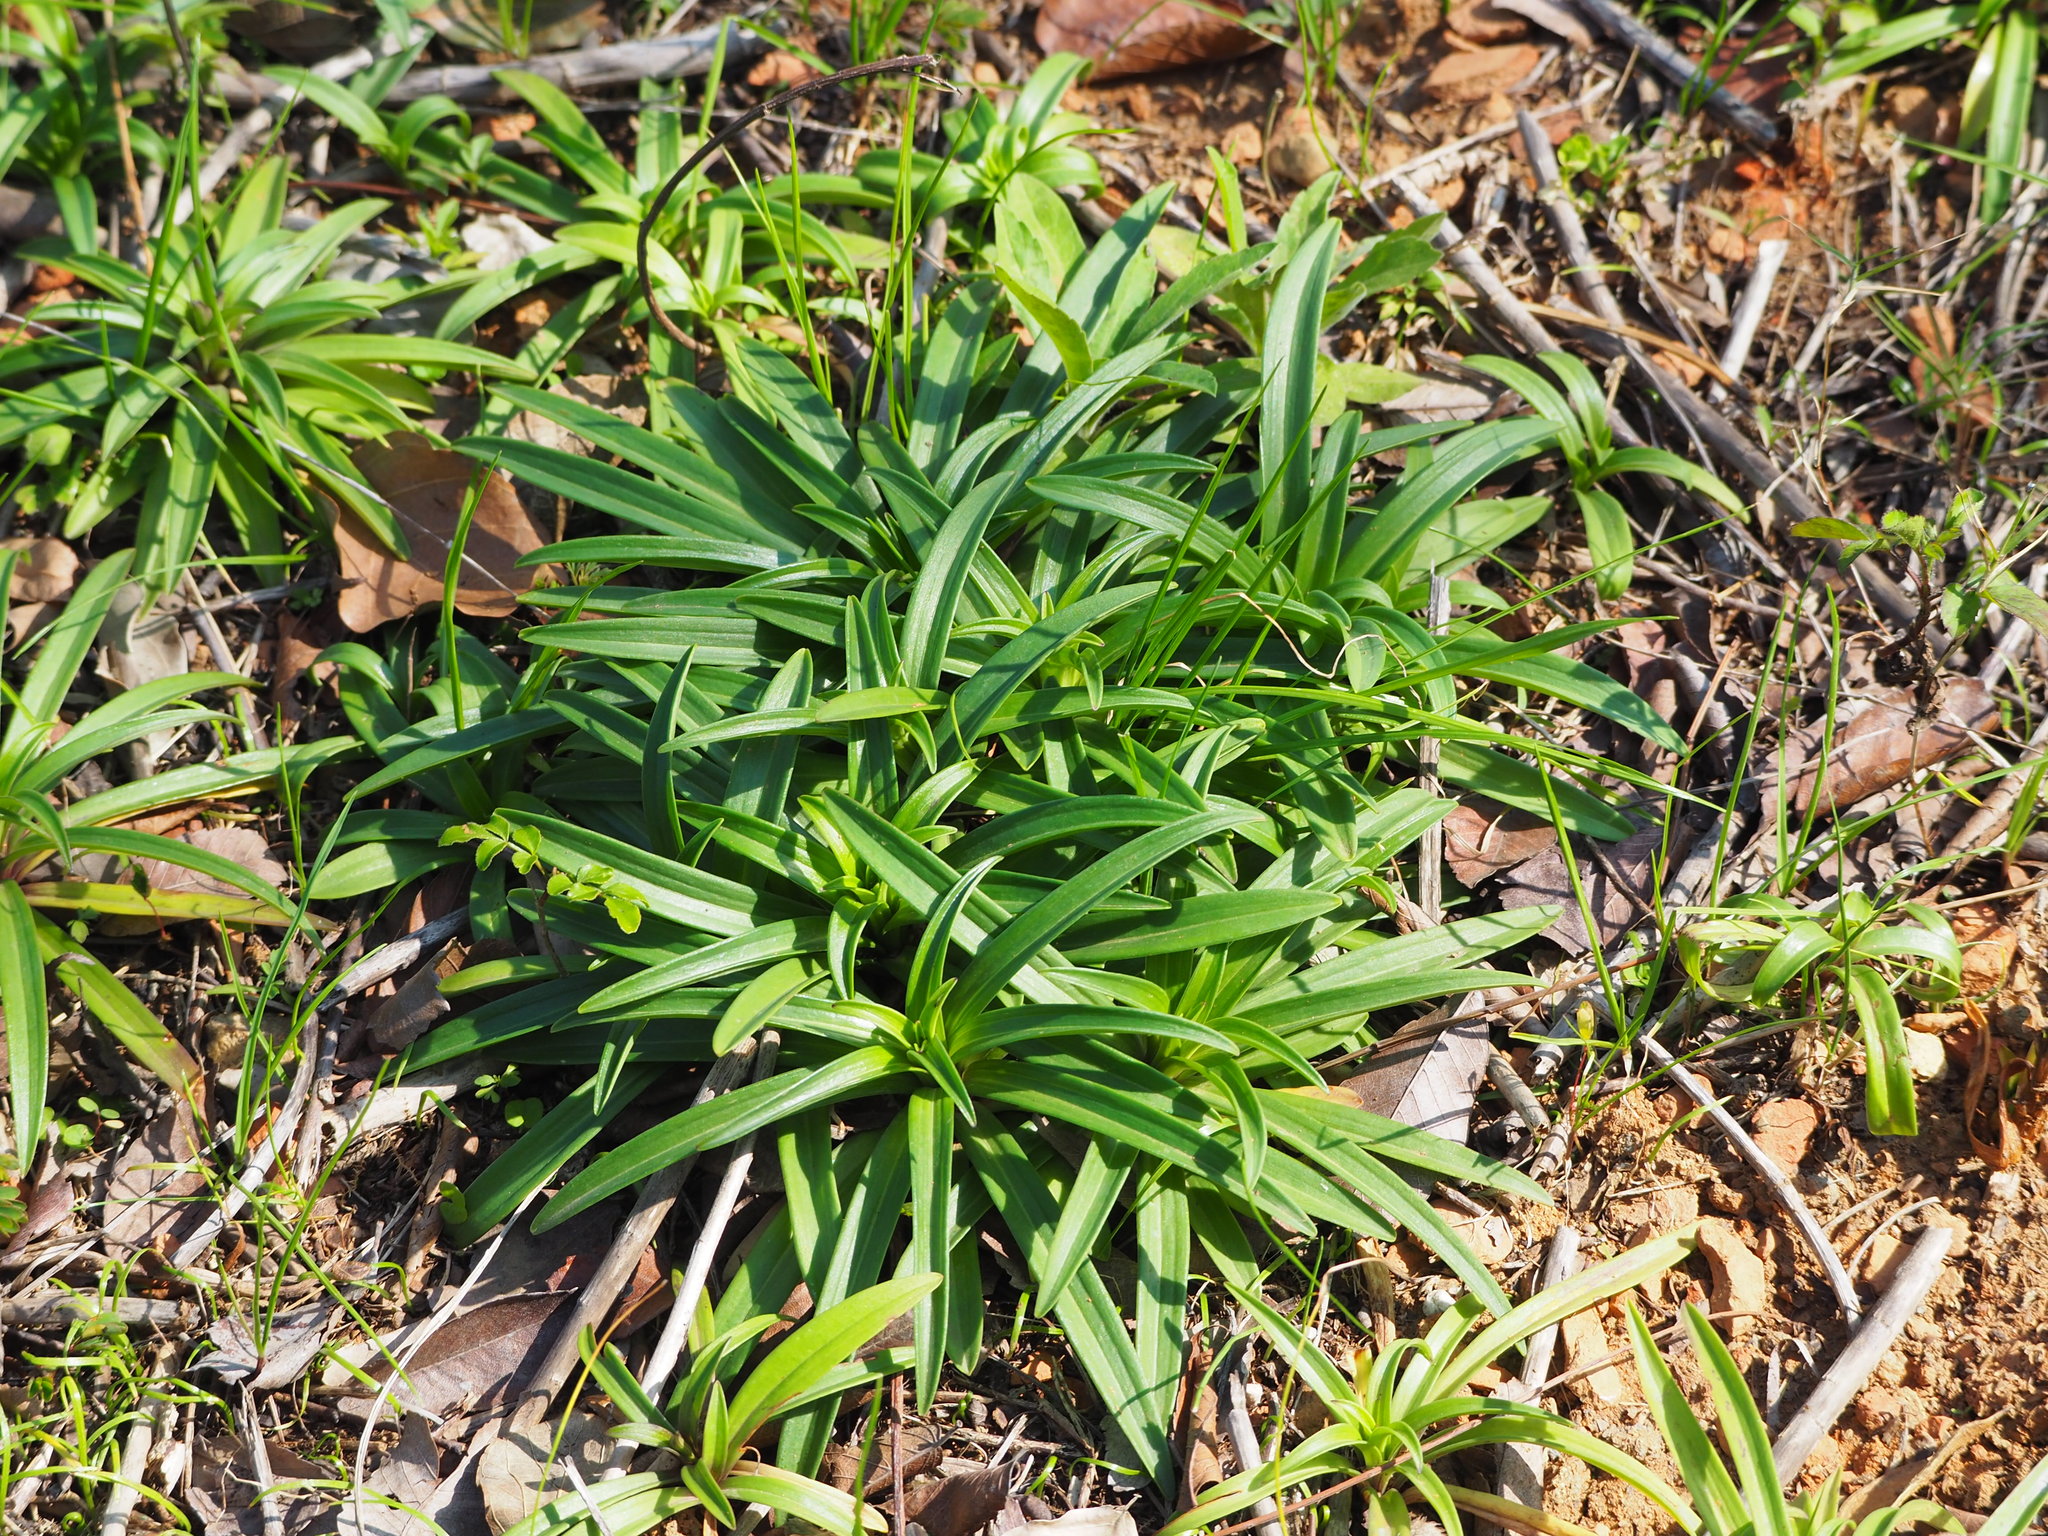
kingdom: Plantae
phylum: Tracheophyta
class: Liliopsida
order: Liliales
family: Liliaceae
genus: Lilium
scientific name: Lilium formosanum
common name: Formosa lily
